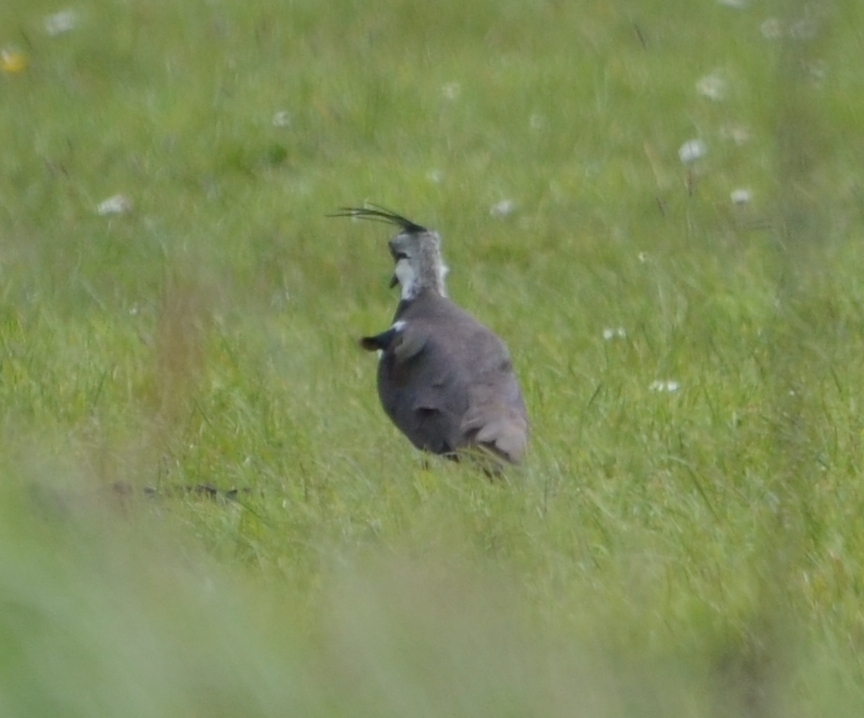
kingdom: Animalia
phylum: Chordata
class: Aves
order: Charadriiformes
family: Charadriidae
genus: Vanellus
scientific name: Vanellus vanellus
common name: Northern lapwing
